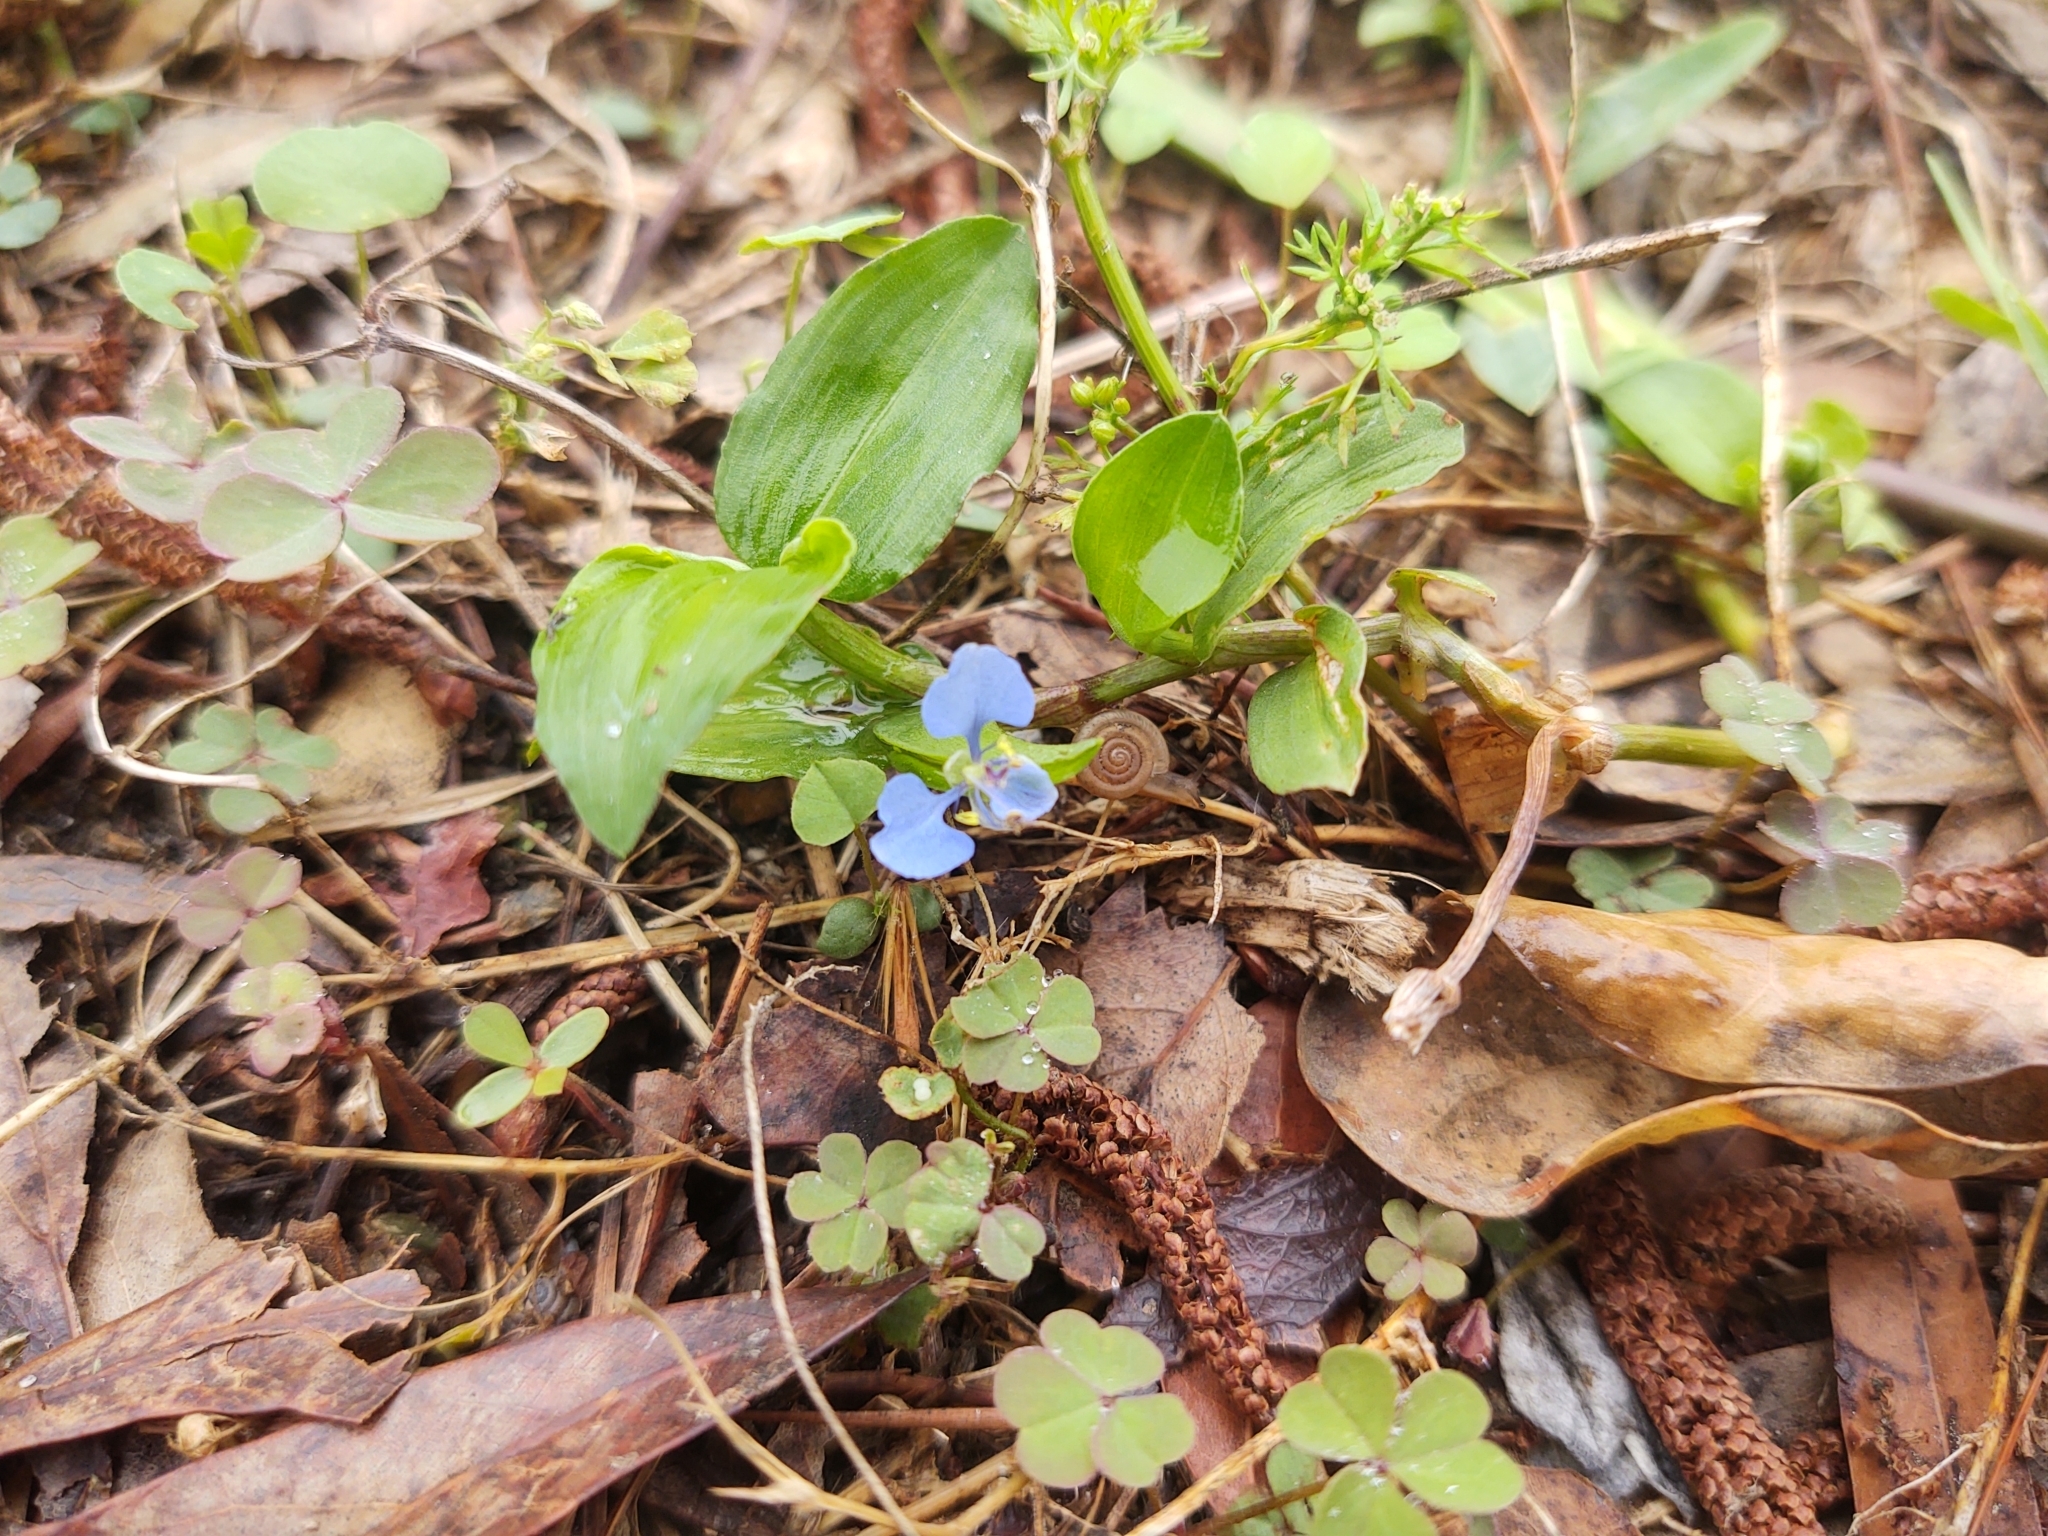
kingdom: Plantae
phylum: Tracheophyta
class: Liliopsida
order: Commelinales
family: Commelinaceae
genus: Commelina
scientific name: Commelina diffusa
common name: Climbing dayflower
